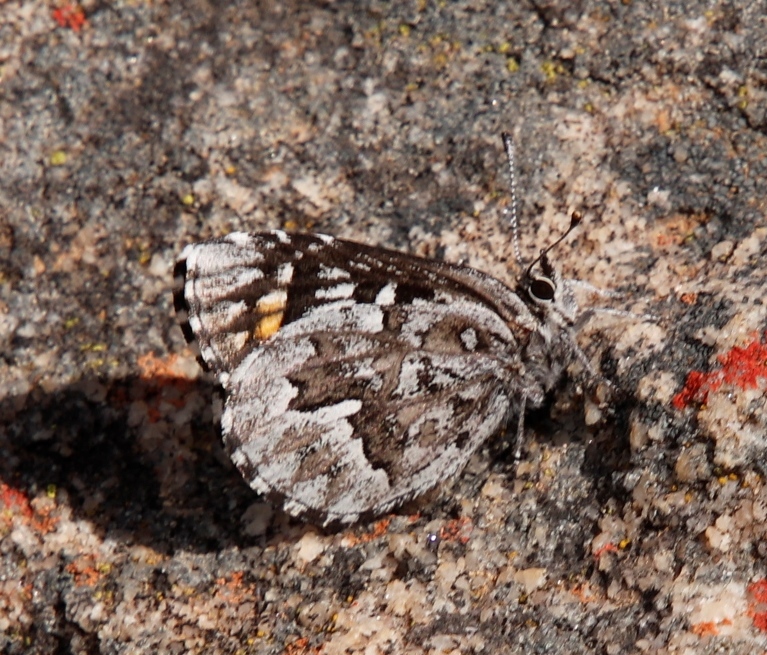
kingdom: Animalia
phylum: Arthropoda
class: Insecta
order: Lepidoptera
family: Lycaenidae
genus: Durbaniopsis
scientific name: Durbaniopsis saga
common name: Boland rocksitter
